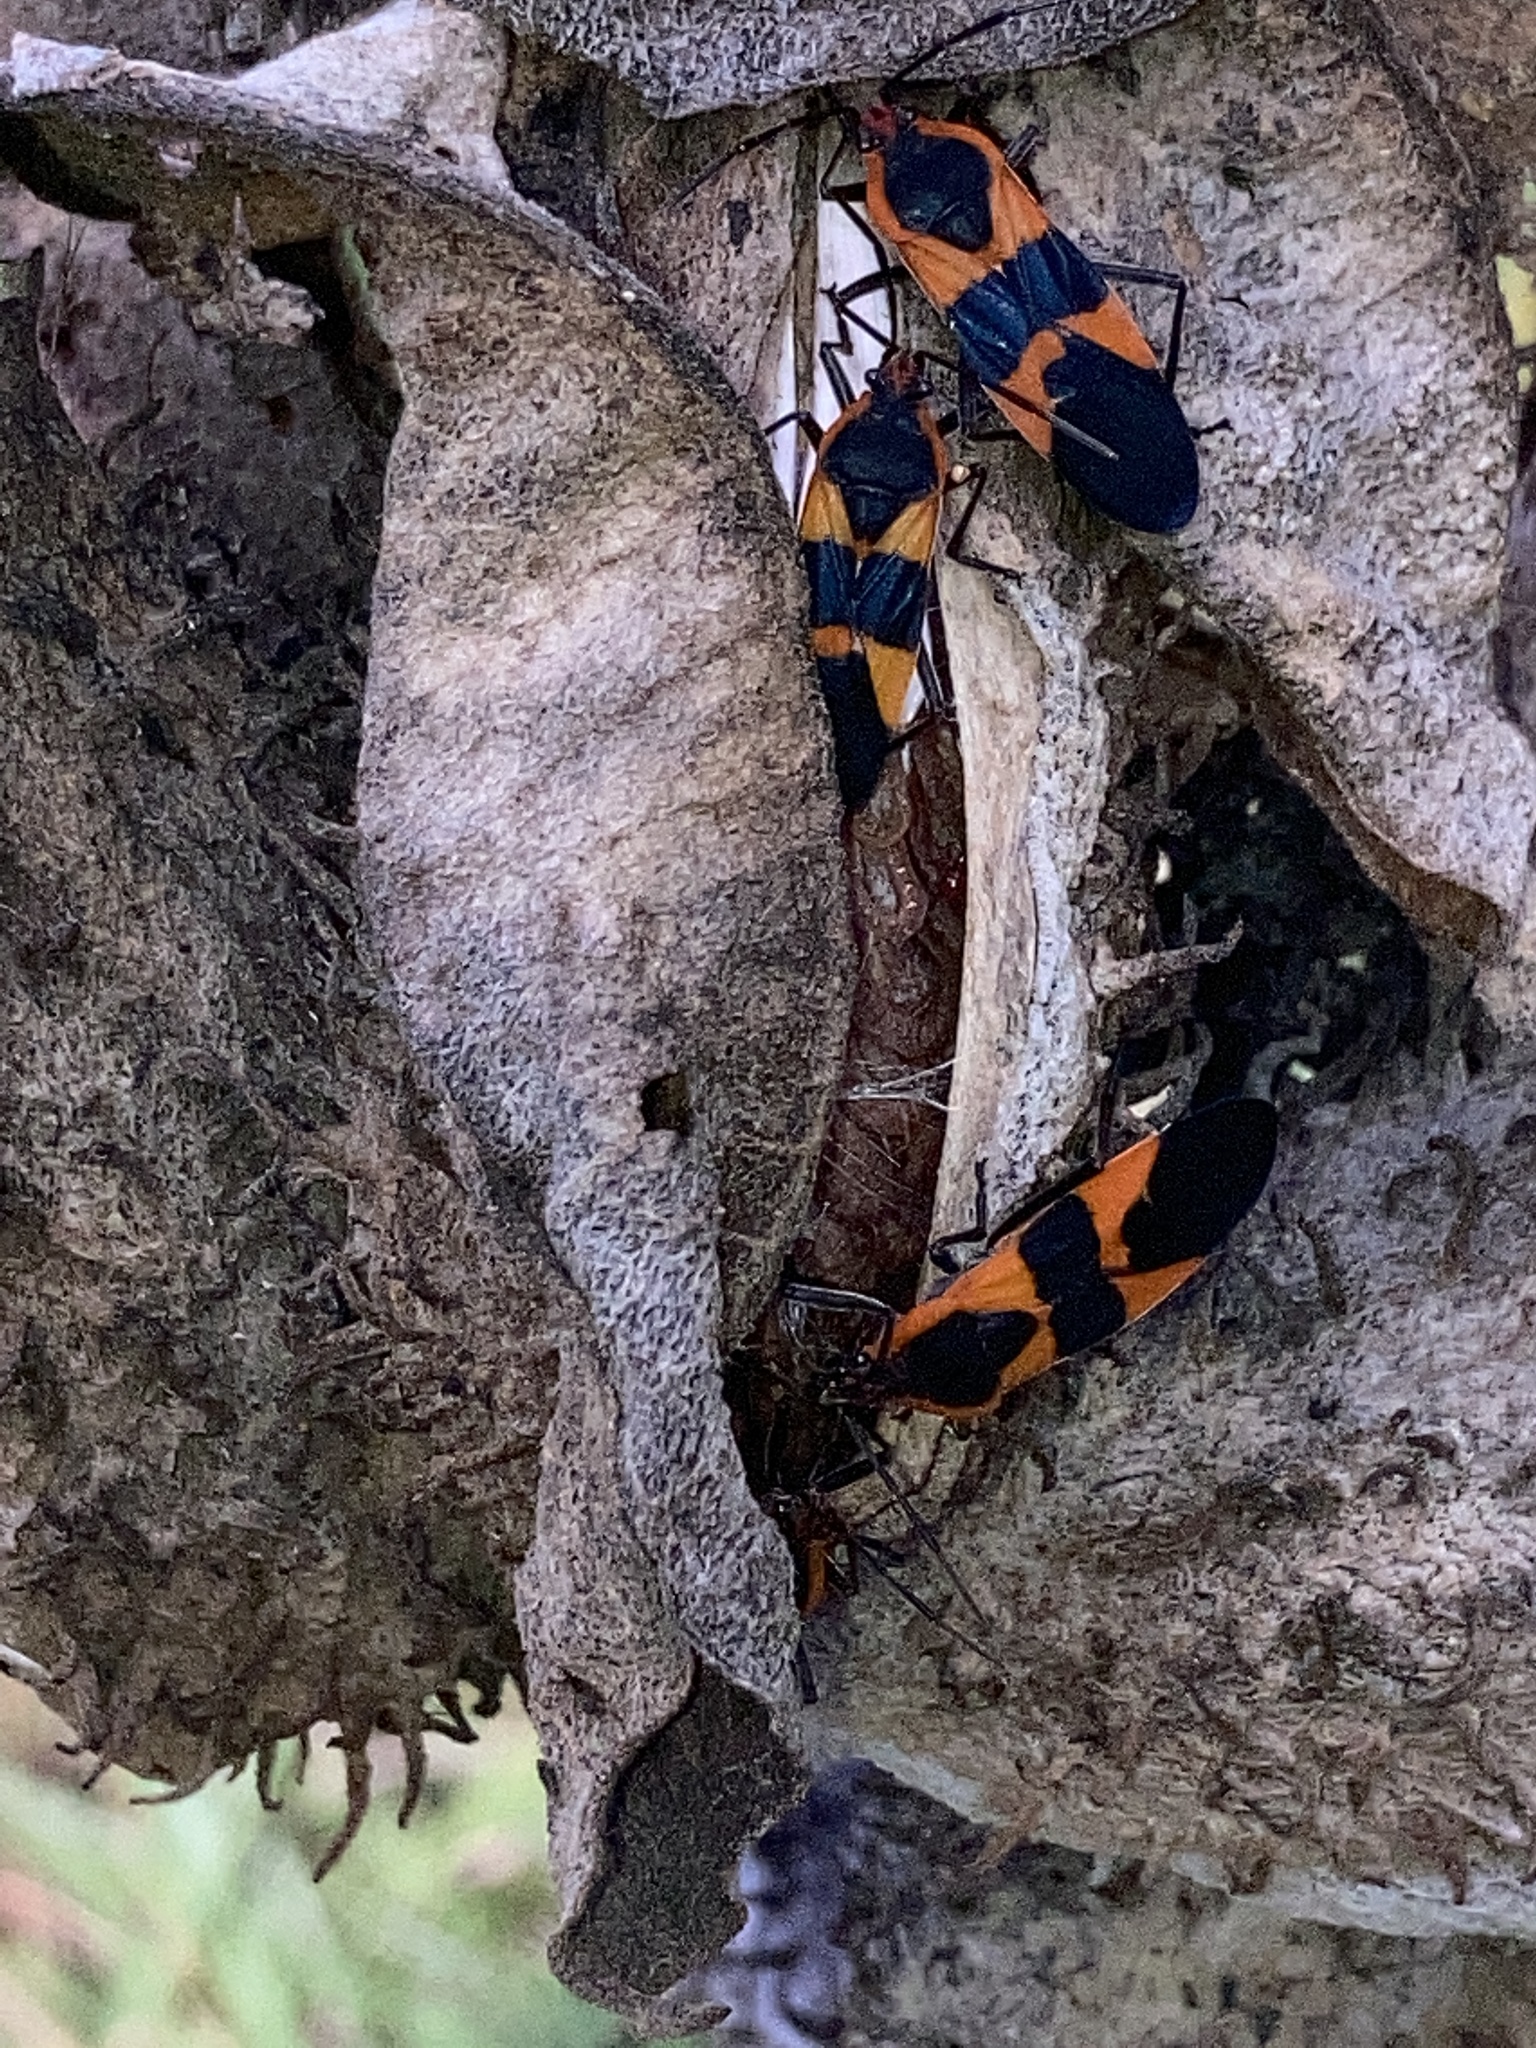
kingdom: Animalia
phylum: Arthropoda
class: Insecta
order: Hemiptera
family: Lygaeidae
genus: Oncopeltus
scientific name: Oncopeltus fasciatus
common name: Large milkweed bug
